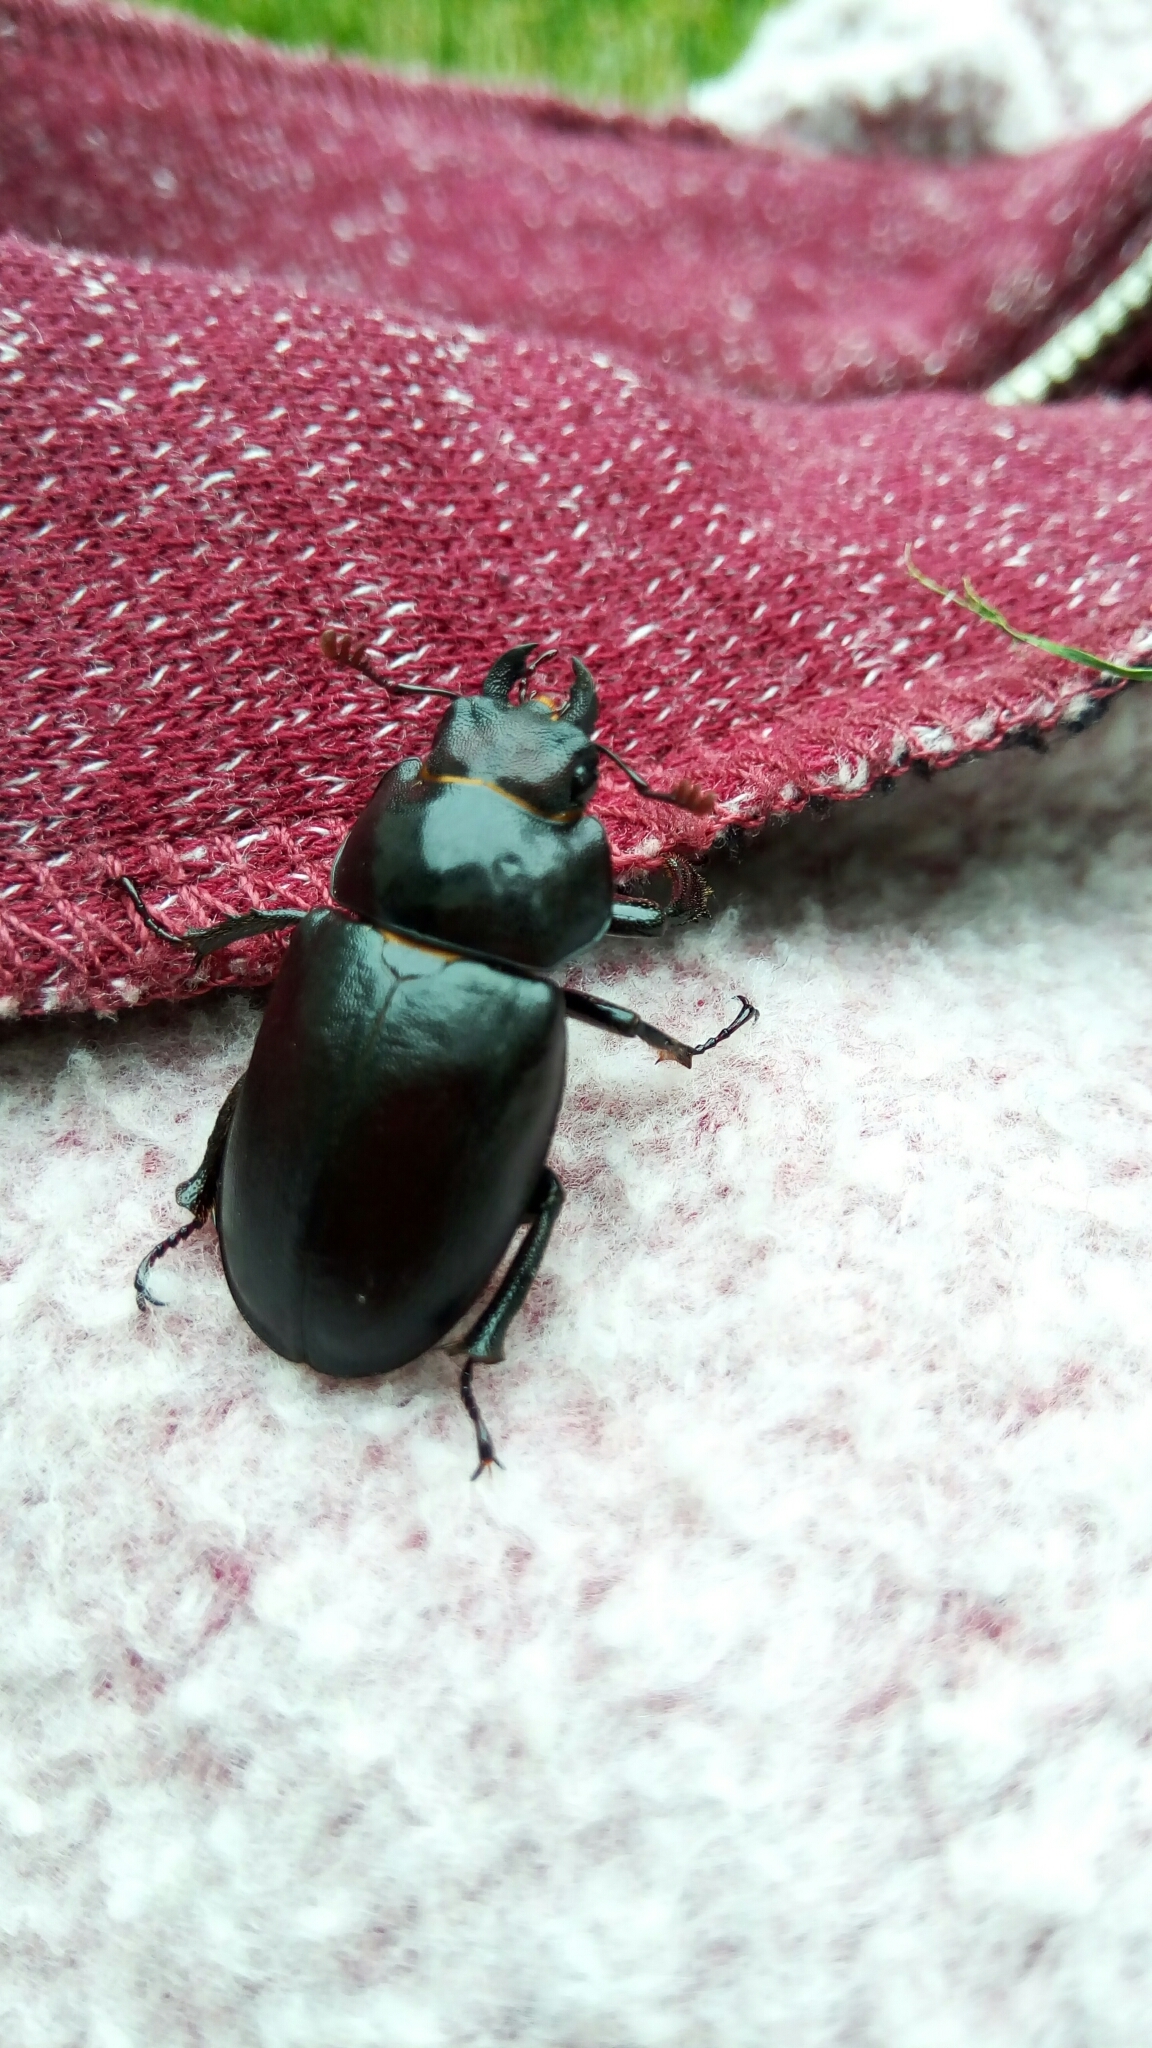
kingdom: Animalia
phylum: Arthropoda
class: Insecta
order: Coleoptera
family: Lucanidae
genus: Lucanus
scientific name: Lucanus placidus
